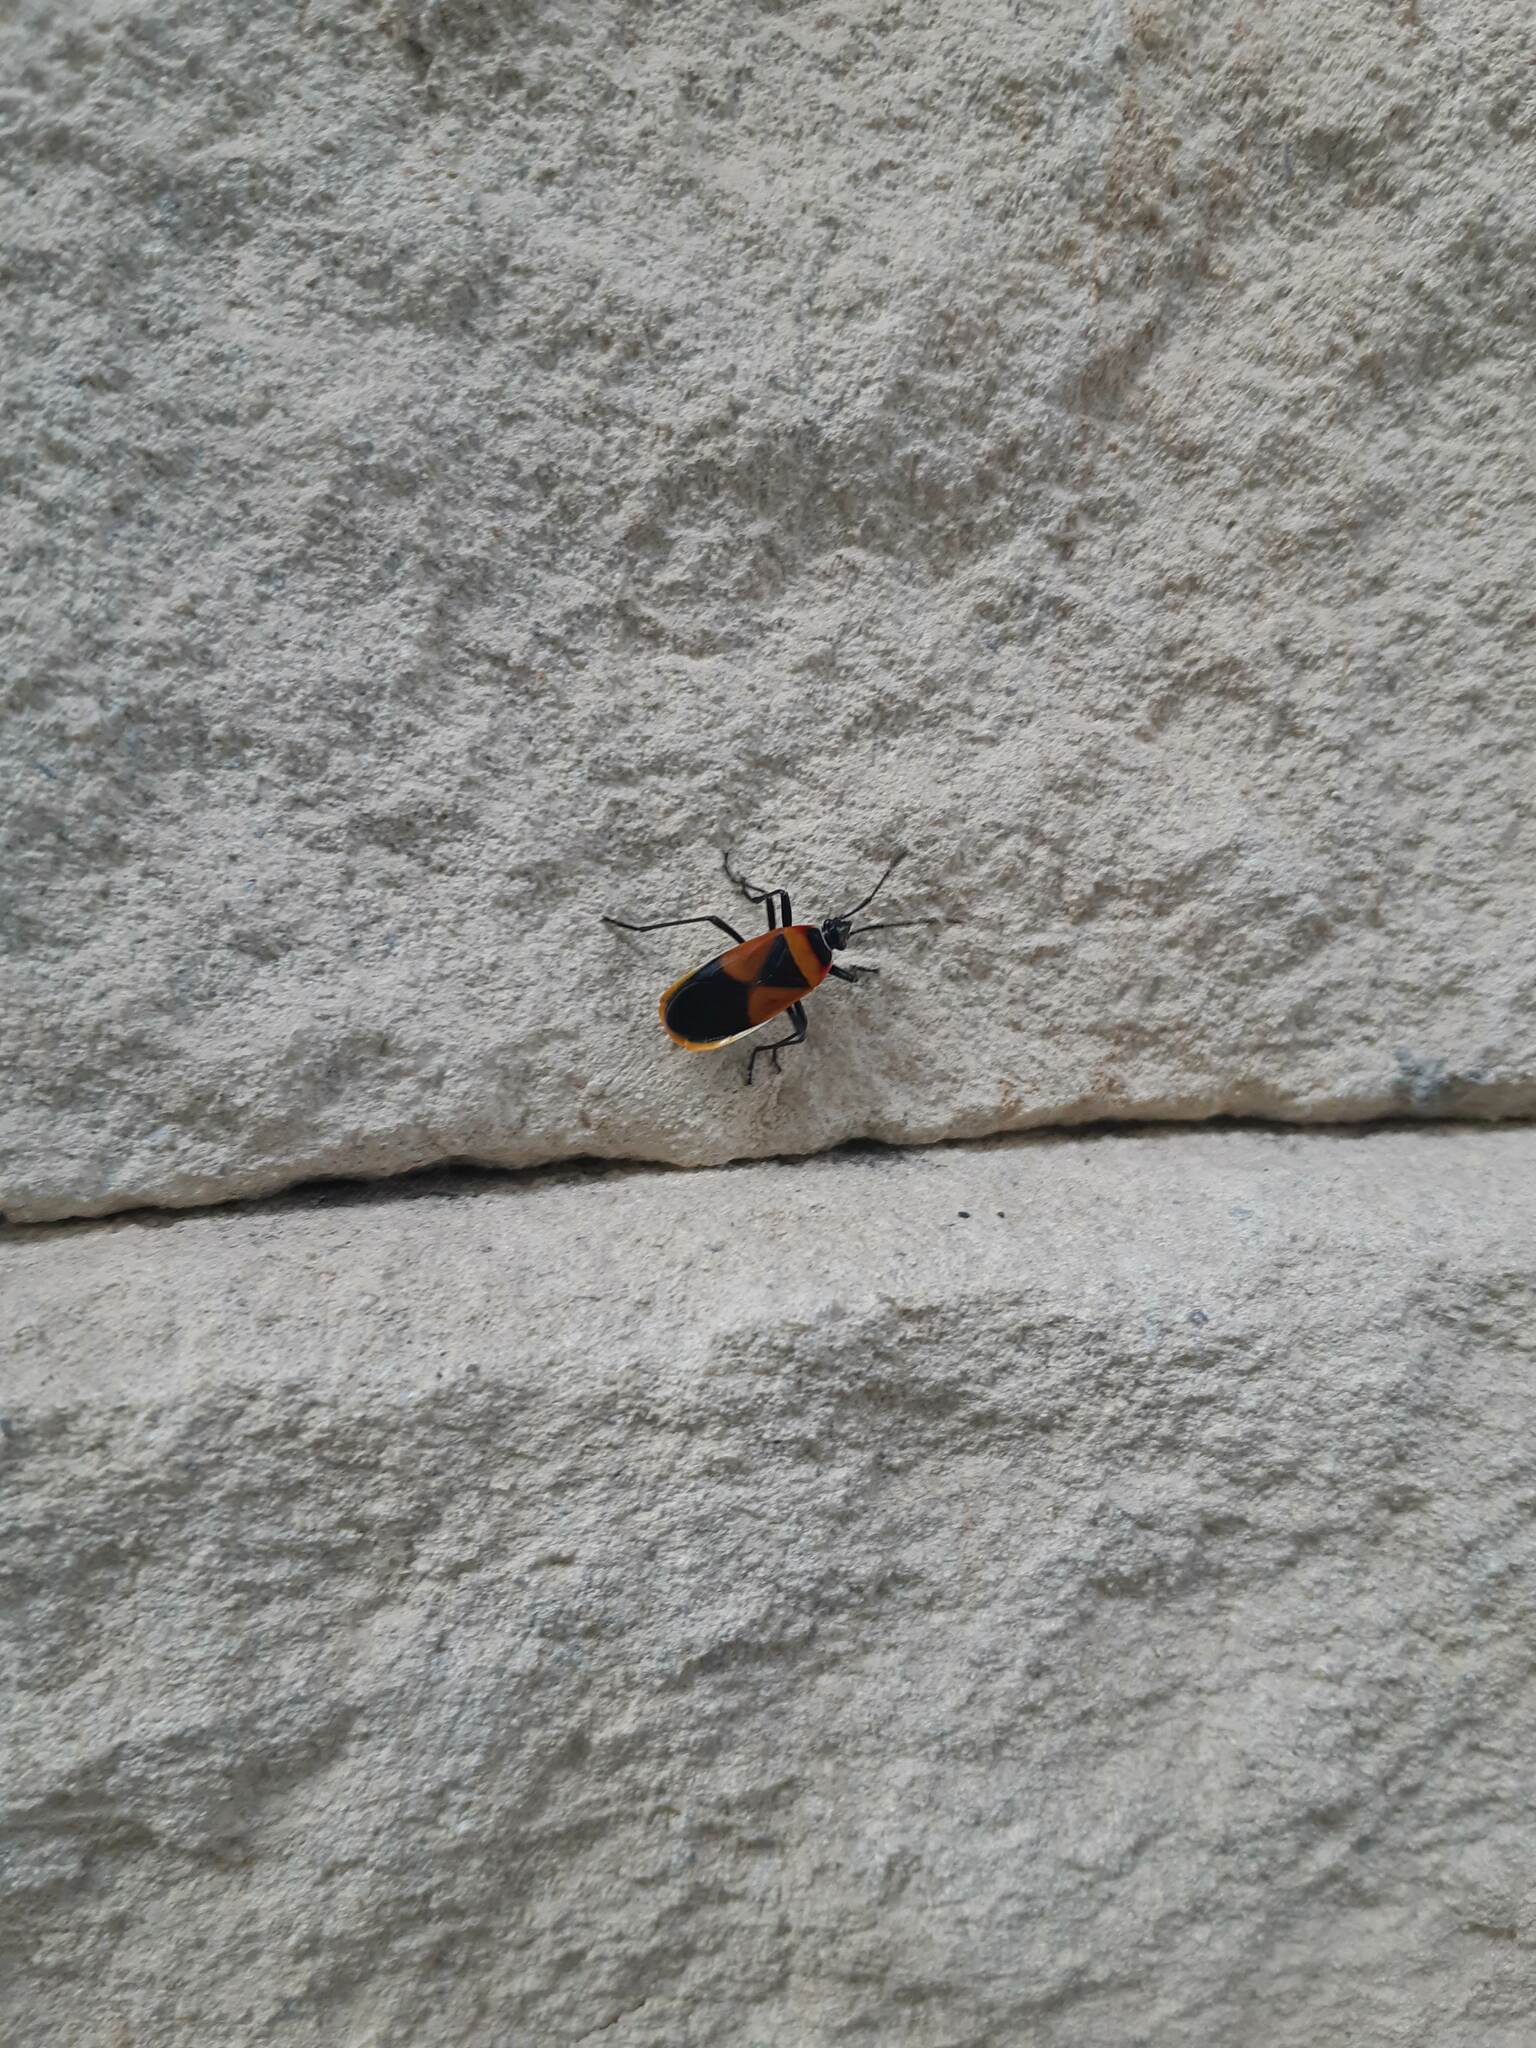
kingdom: Animalia
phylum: Arthropoda
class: Insecta
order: Hemiptera
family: Pyrrhocoridae
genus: Dindymus
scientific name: Dindymus
